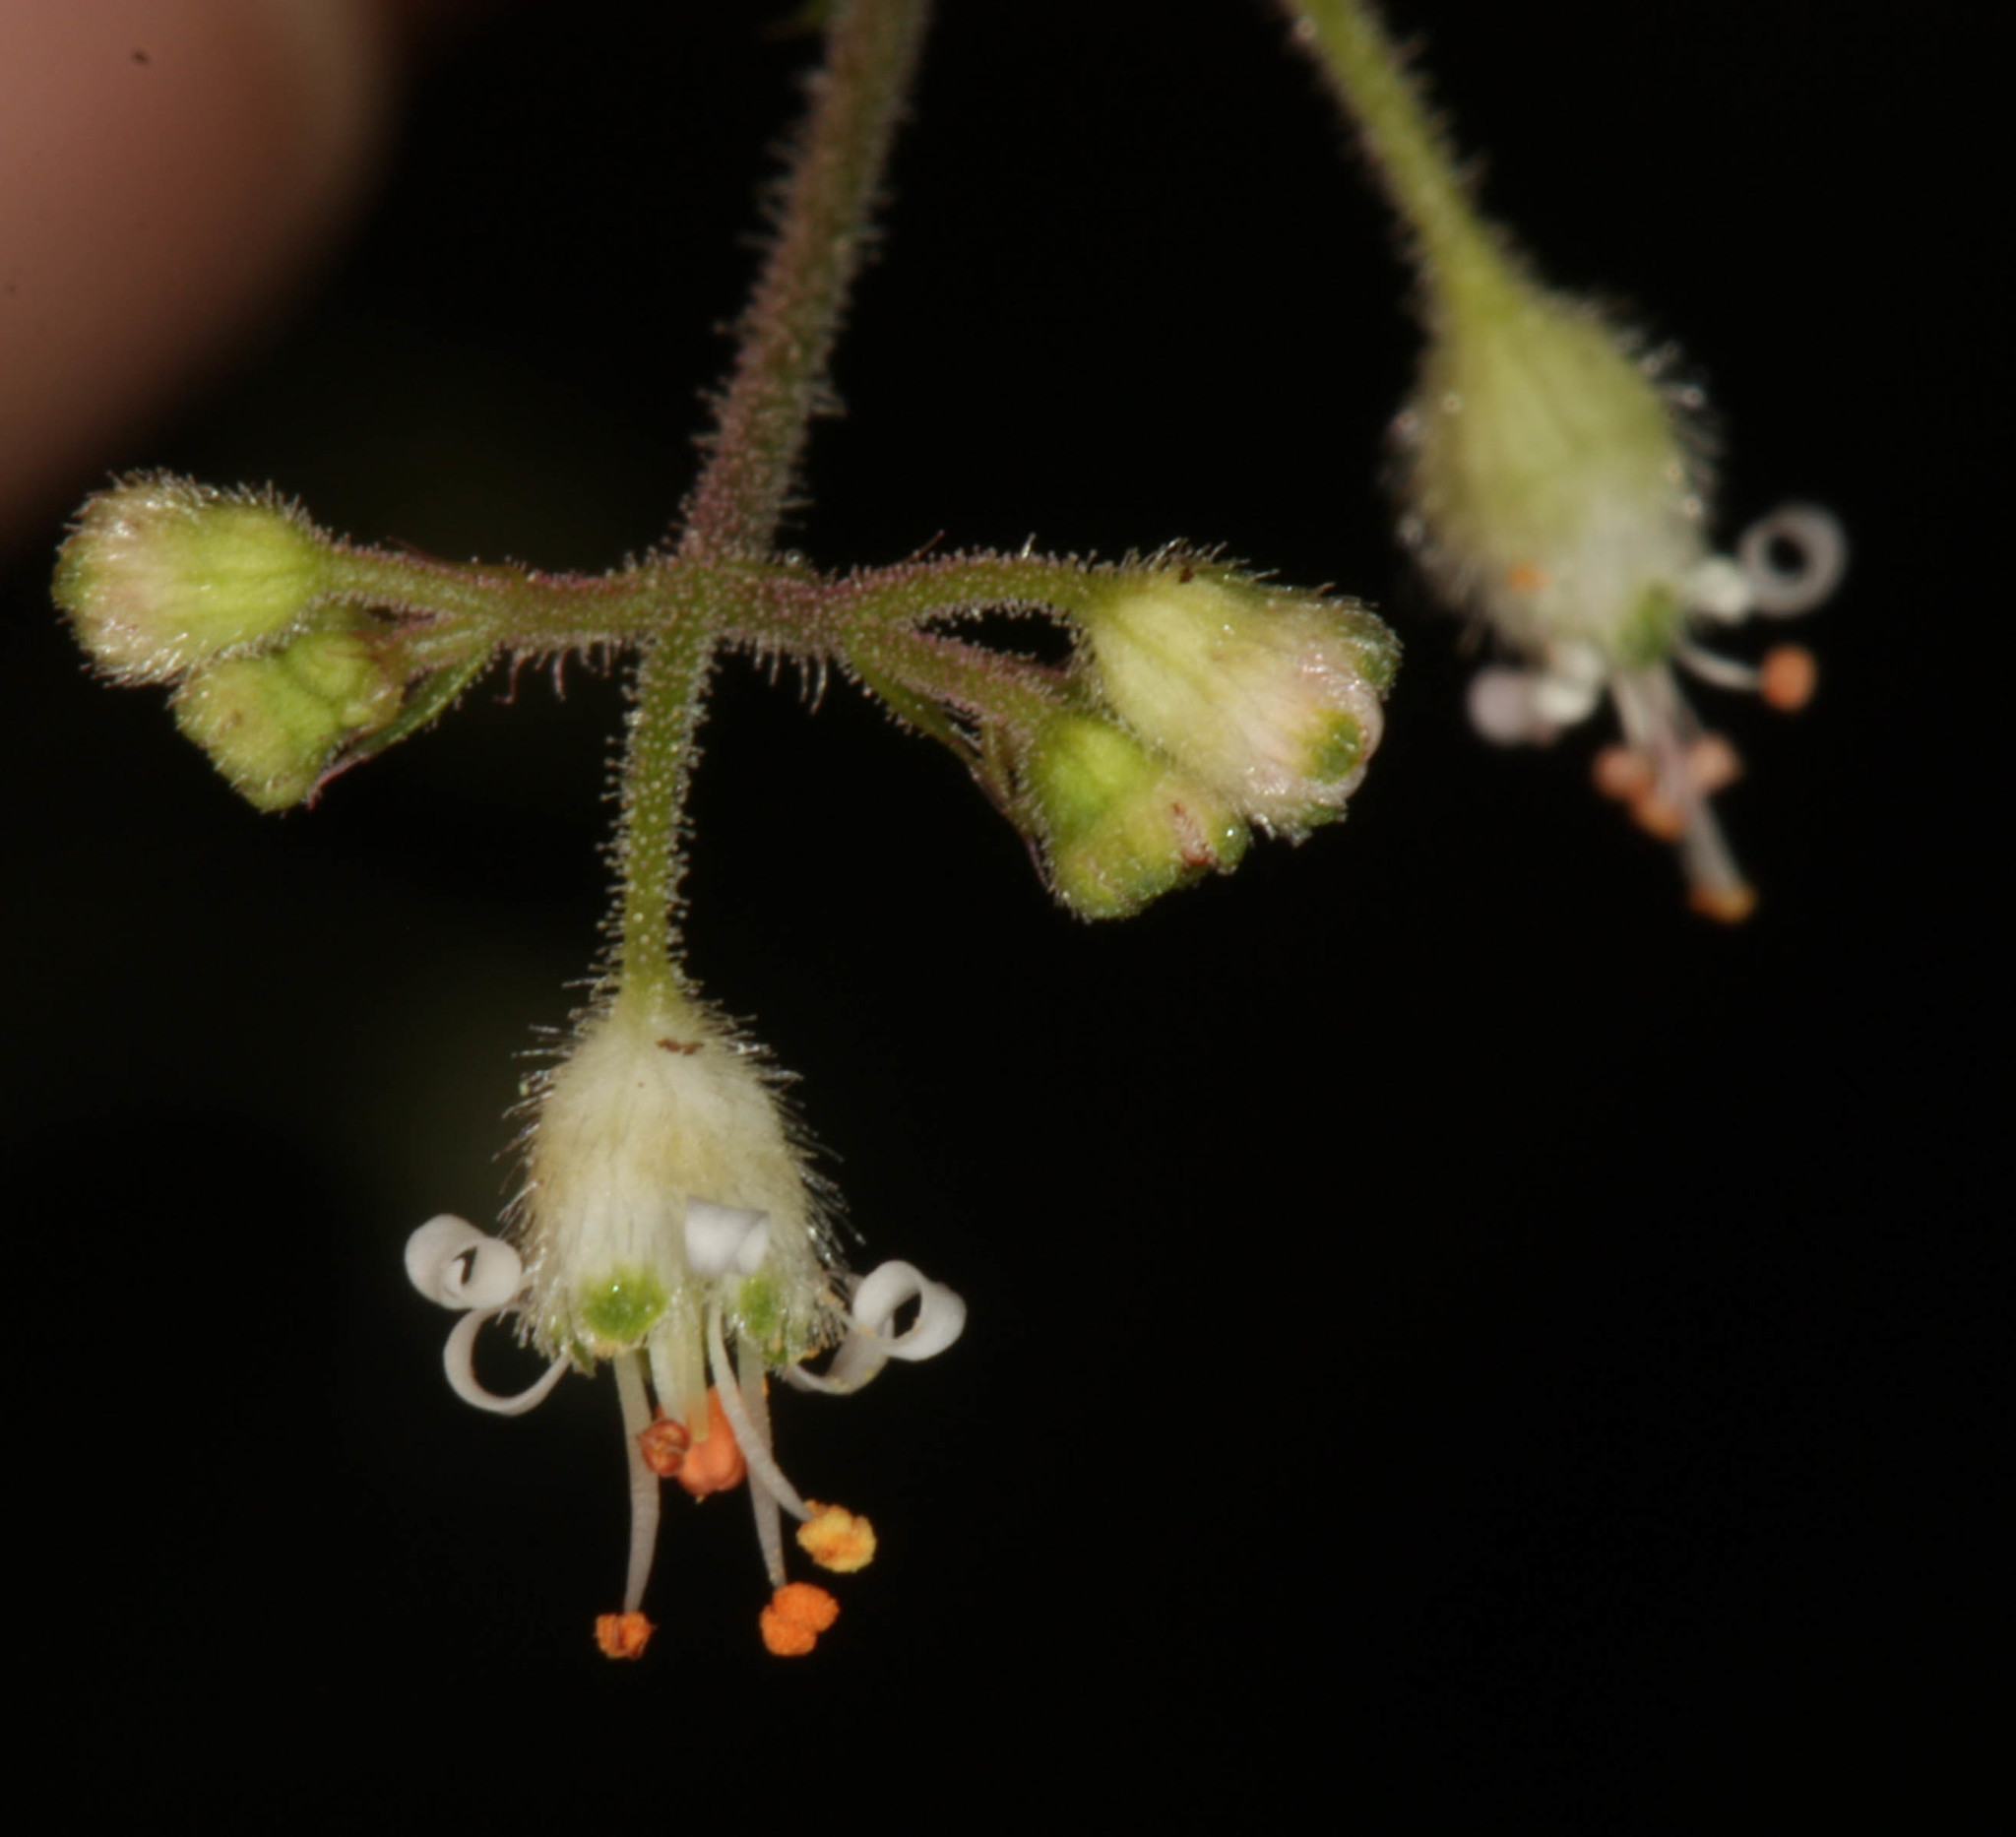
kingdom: Plantae
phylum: Tracheophyta
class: Magnoliopsida
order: Saxifragales
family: Saxifragaceae
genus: Heuchera
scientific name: Heuchera micrantha
